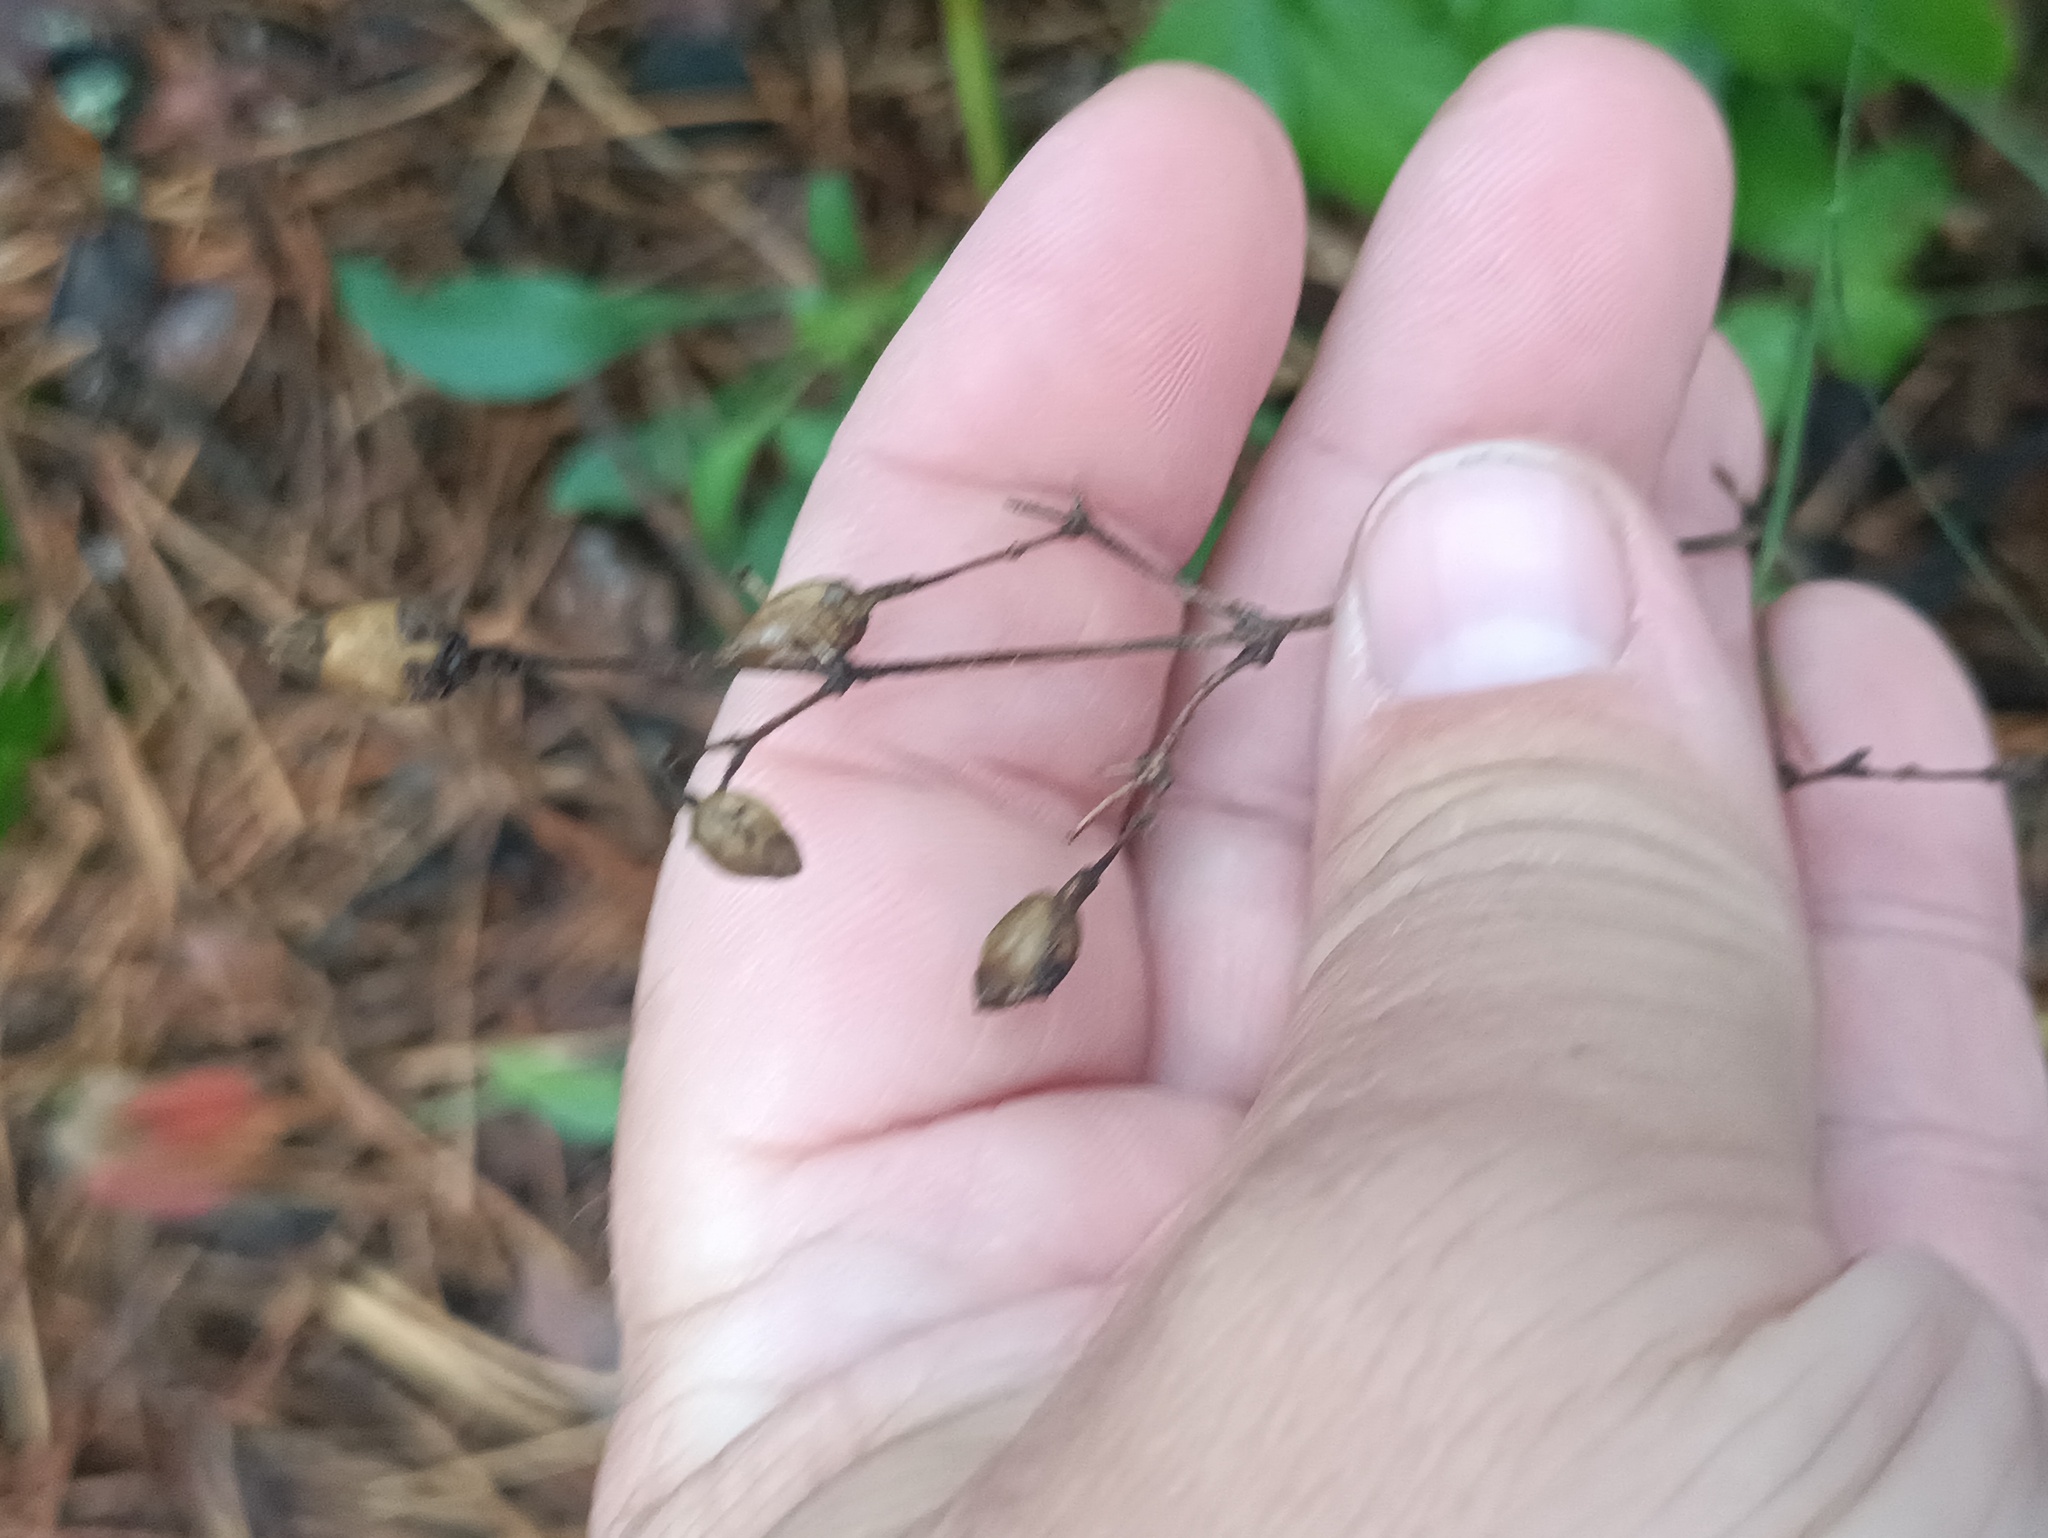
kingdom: Plantae
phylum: Tracheophyta
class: Magnoliopsida
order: Caryophyllales
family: Caryophyllaceae
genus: Silene
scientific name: Silene nutans
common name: Nottingham catchfly
